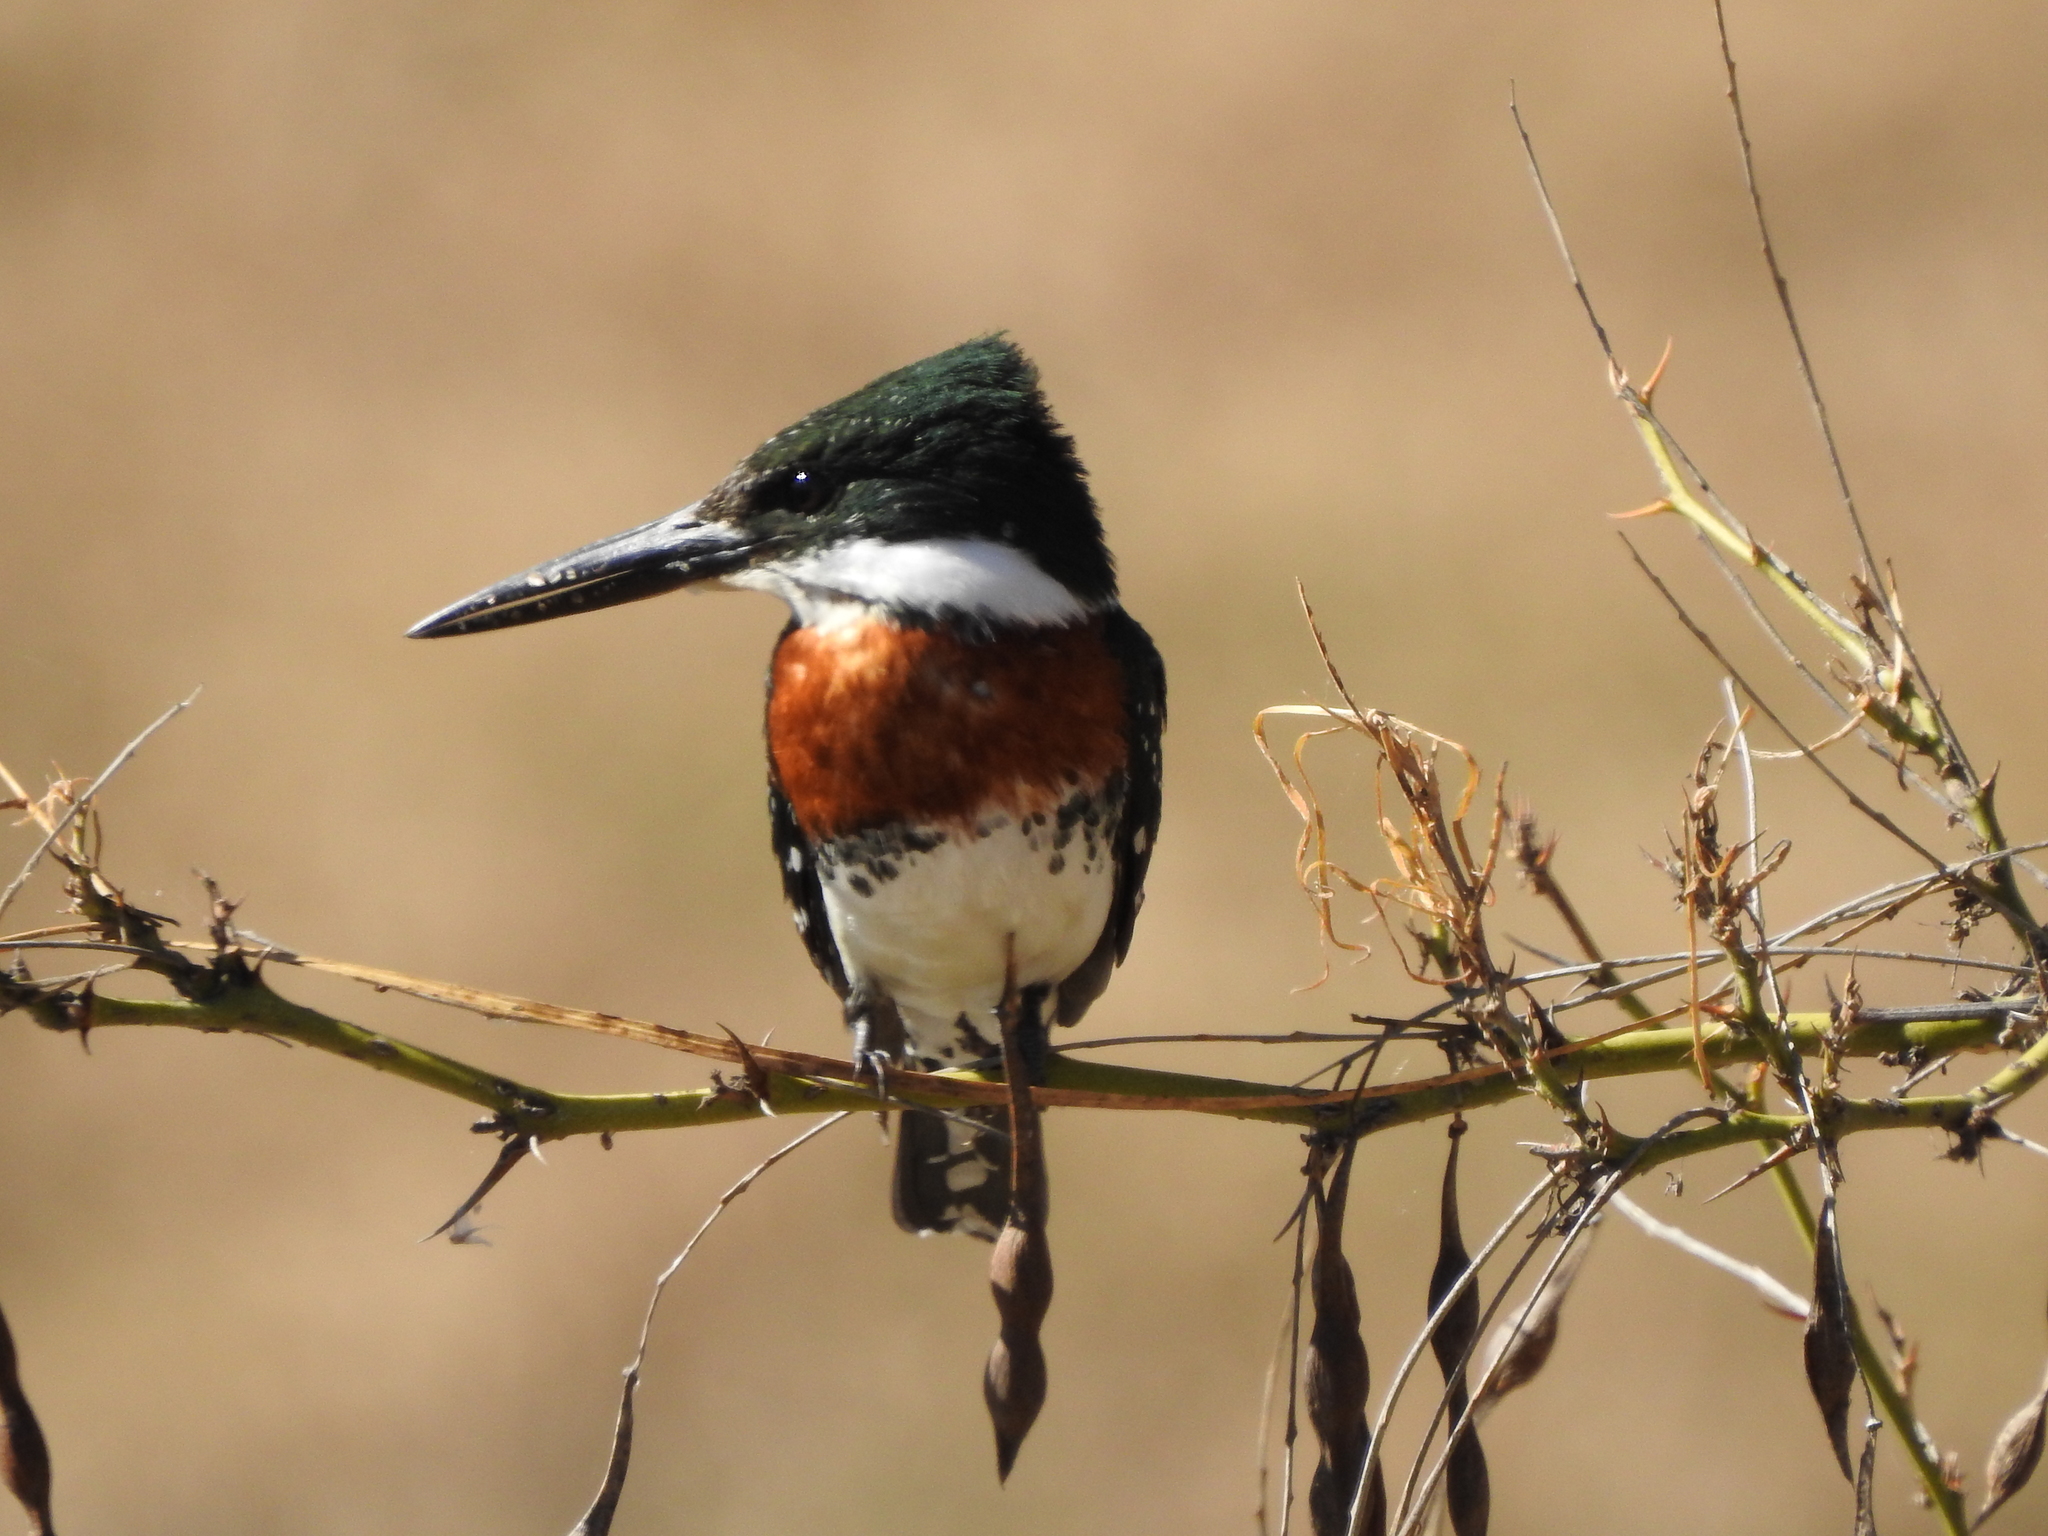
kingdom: Animalia
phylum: Chordata
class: Aves
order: Coraciiformes
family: Alcedinidae
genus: Chloroceryle
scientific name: Chloroceryle americana
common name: Green kingfisher
